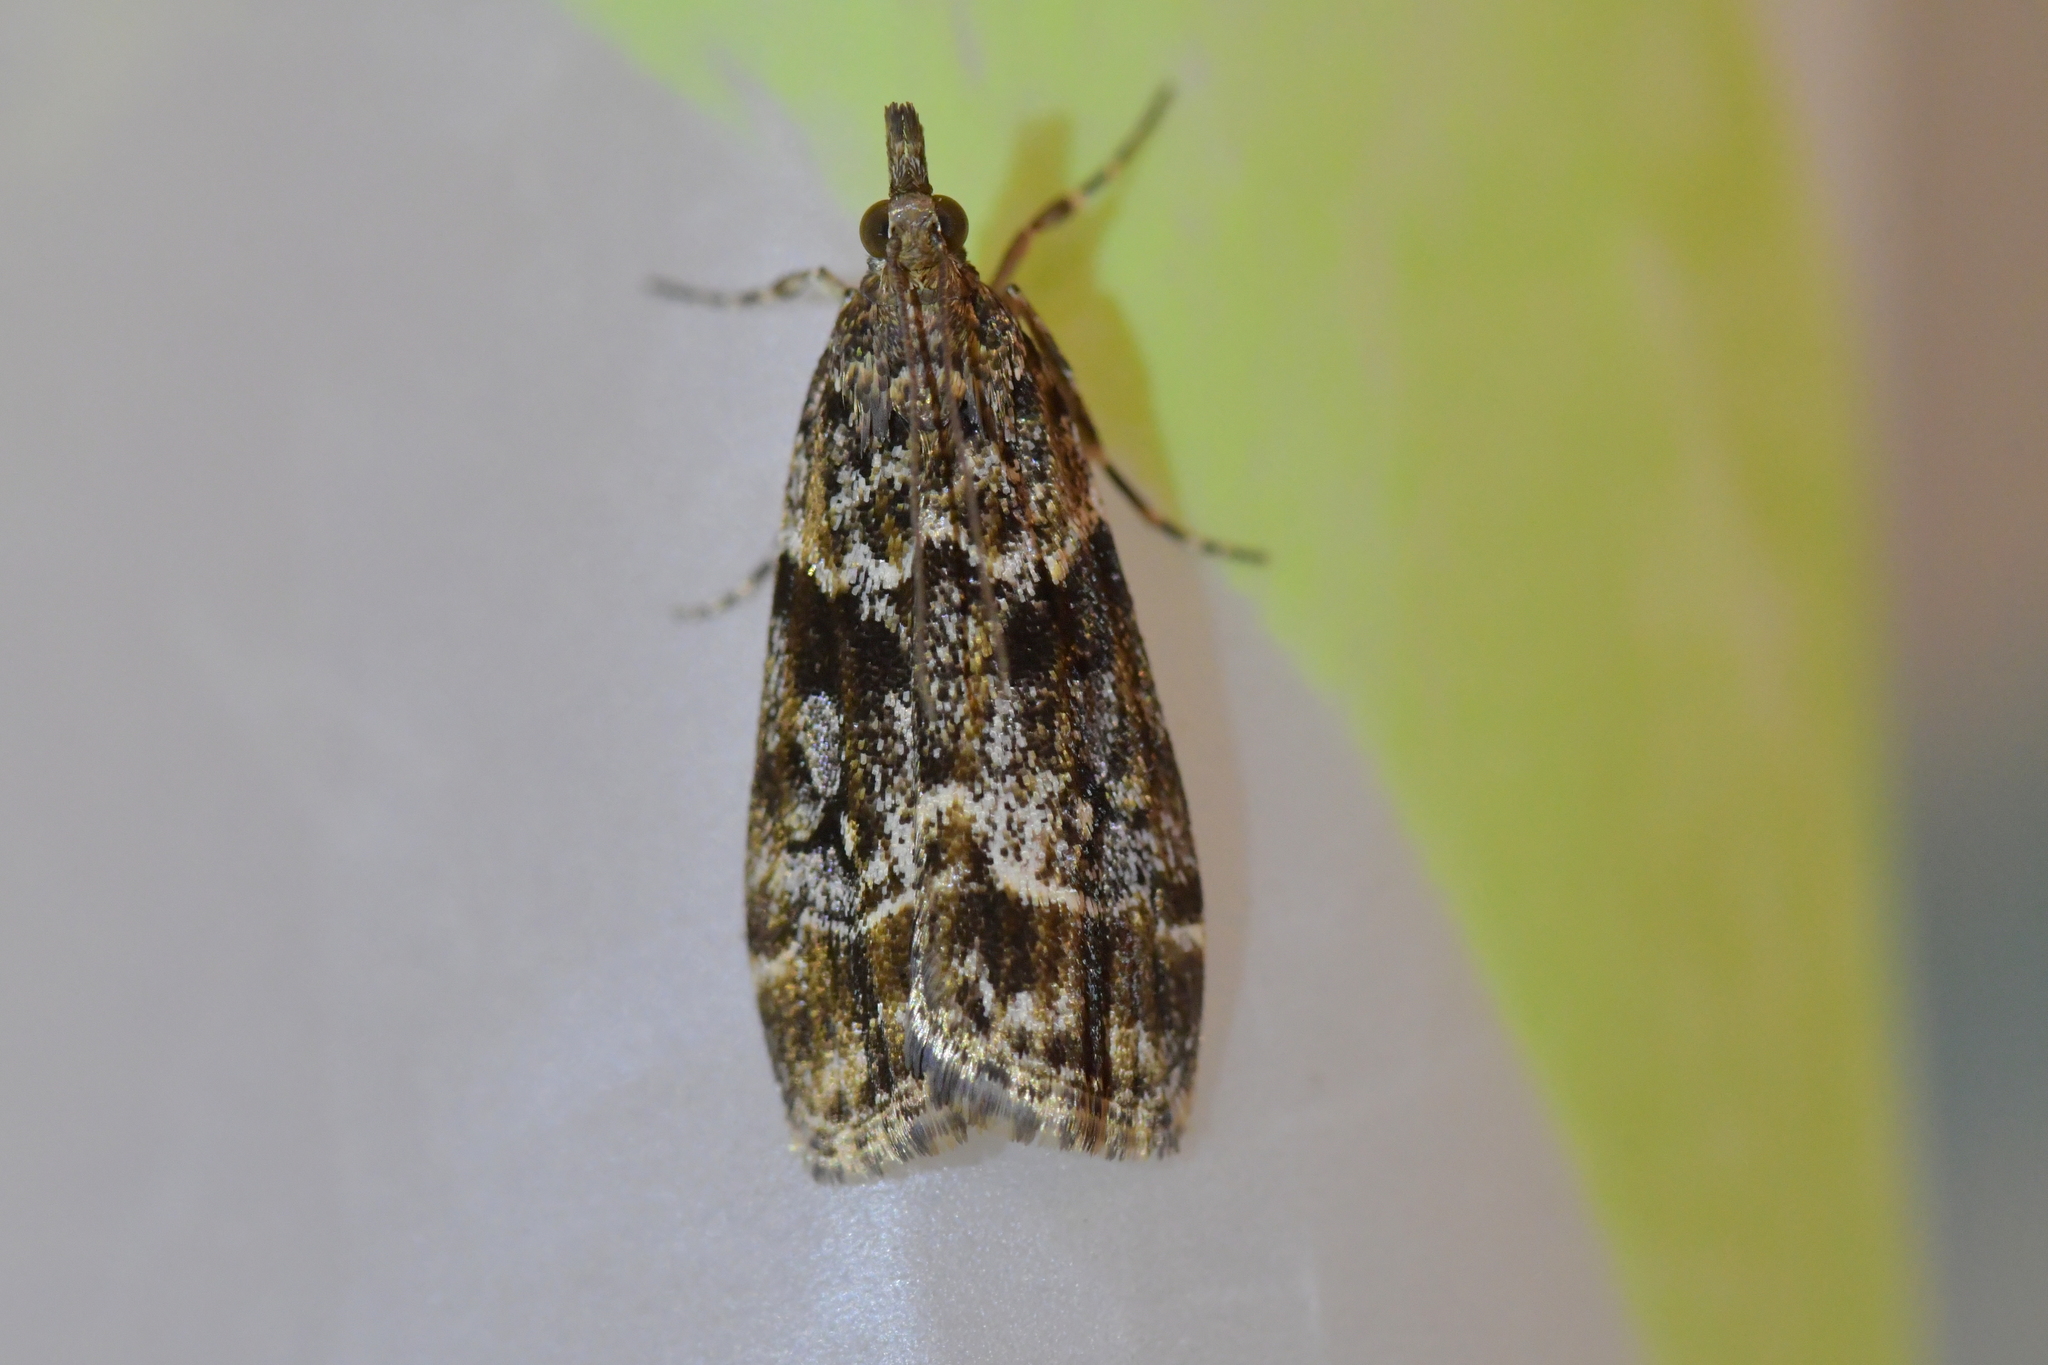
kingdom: Animalia
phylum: Arthropoda
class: Insecta
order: Lepidoptera
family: Crambidae
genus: Eudonia
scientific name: Eudonia legnota
